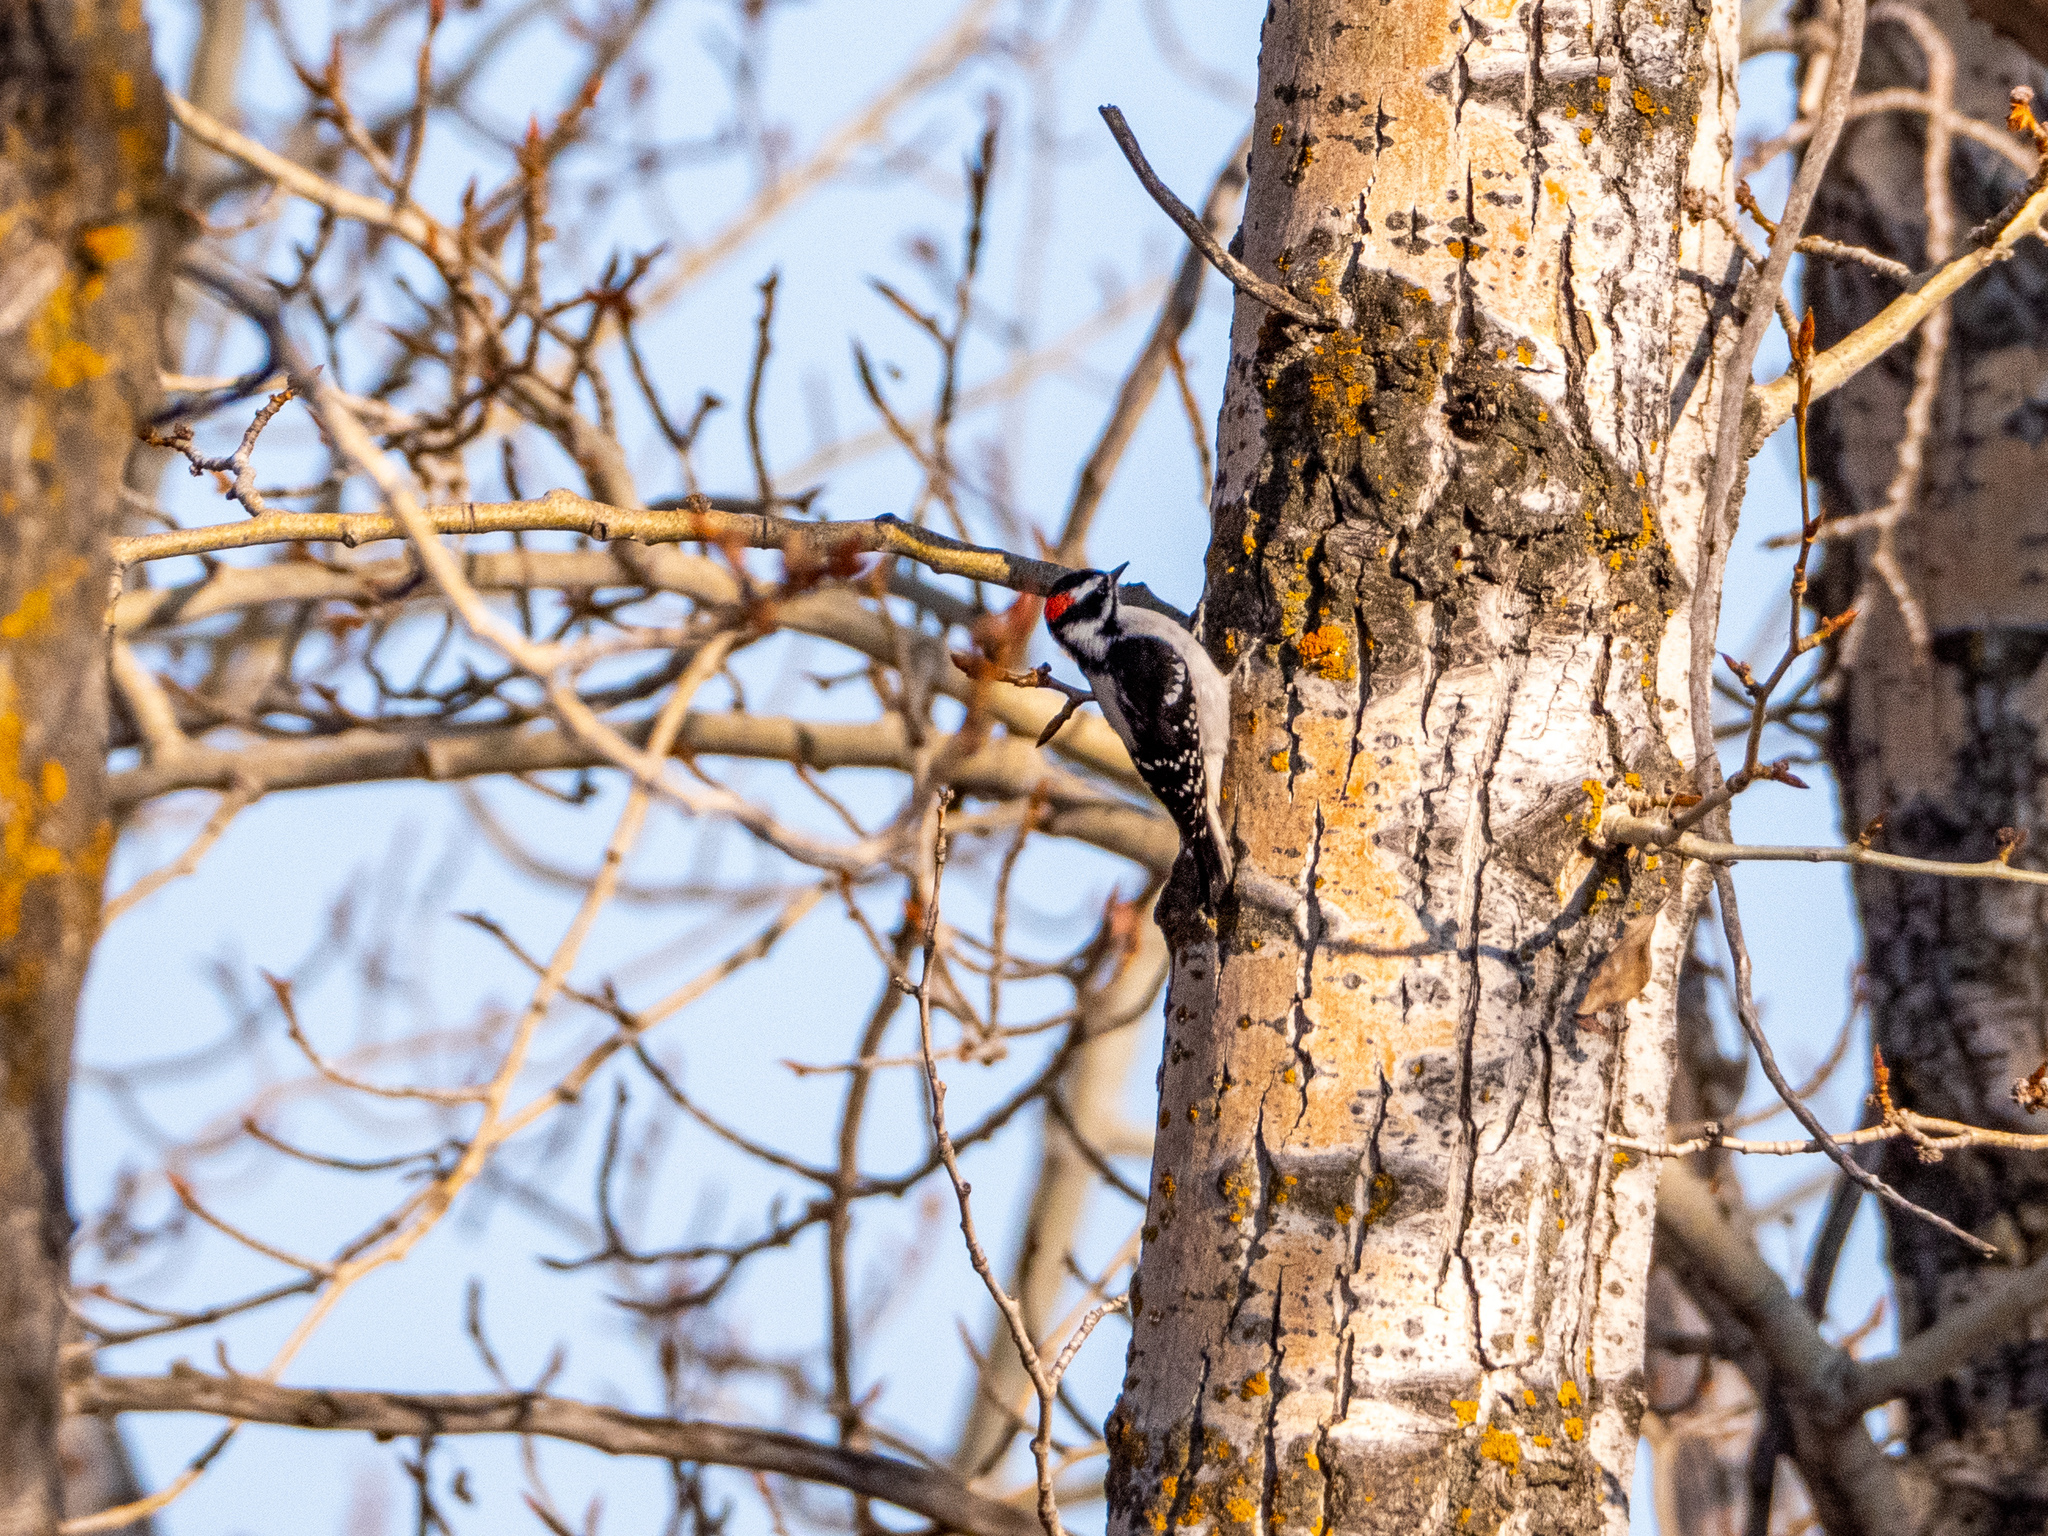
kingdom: Animalia
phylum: Chordata
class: Aves
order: Piciformes
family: Picidae
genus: Dryobates
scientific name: Dryobates pubescens
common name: Downy woodpecker
